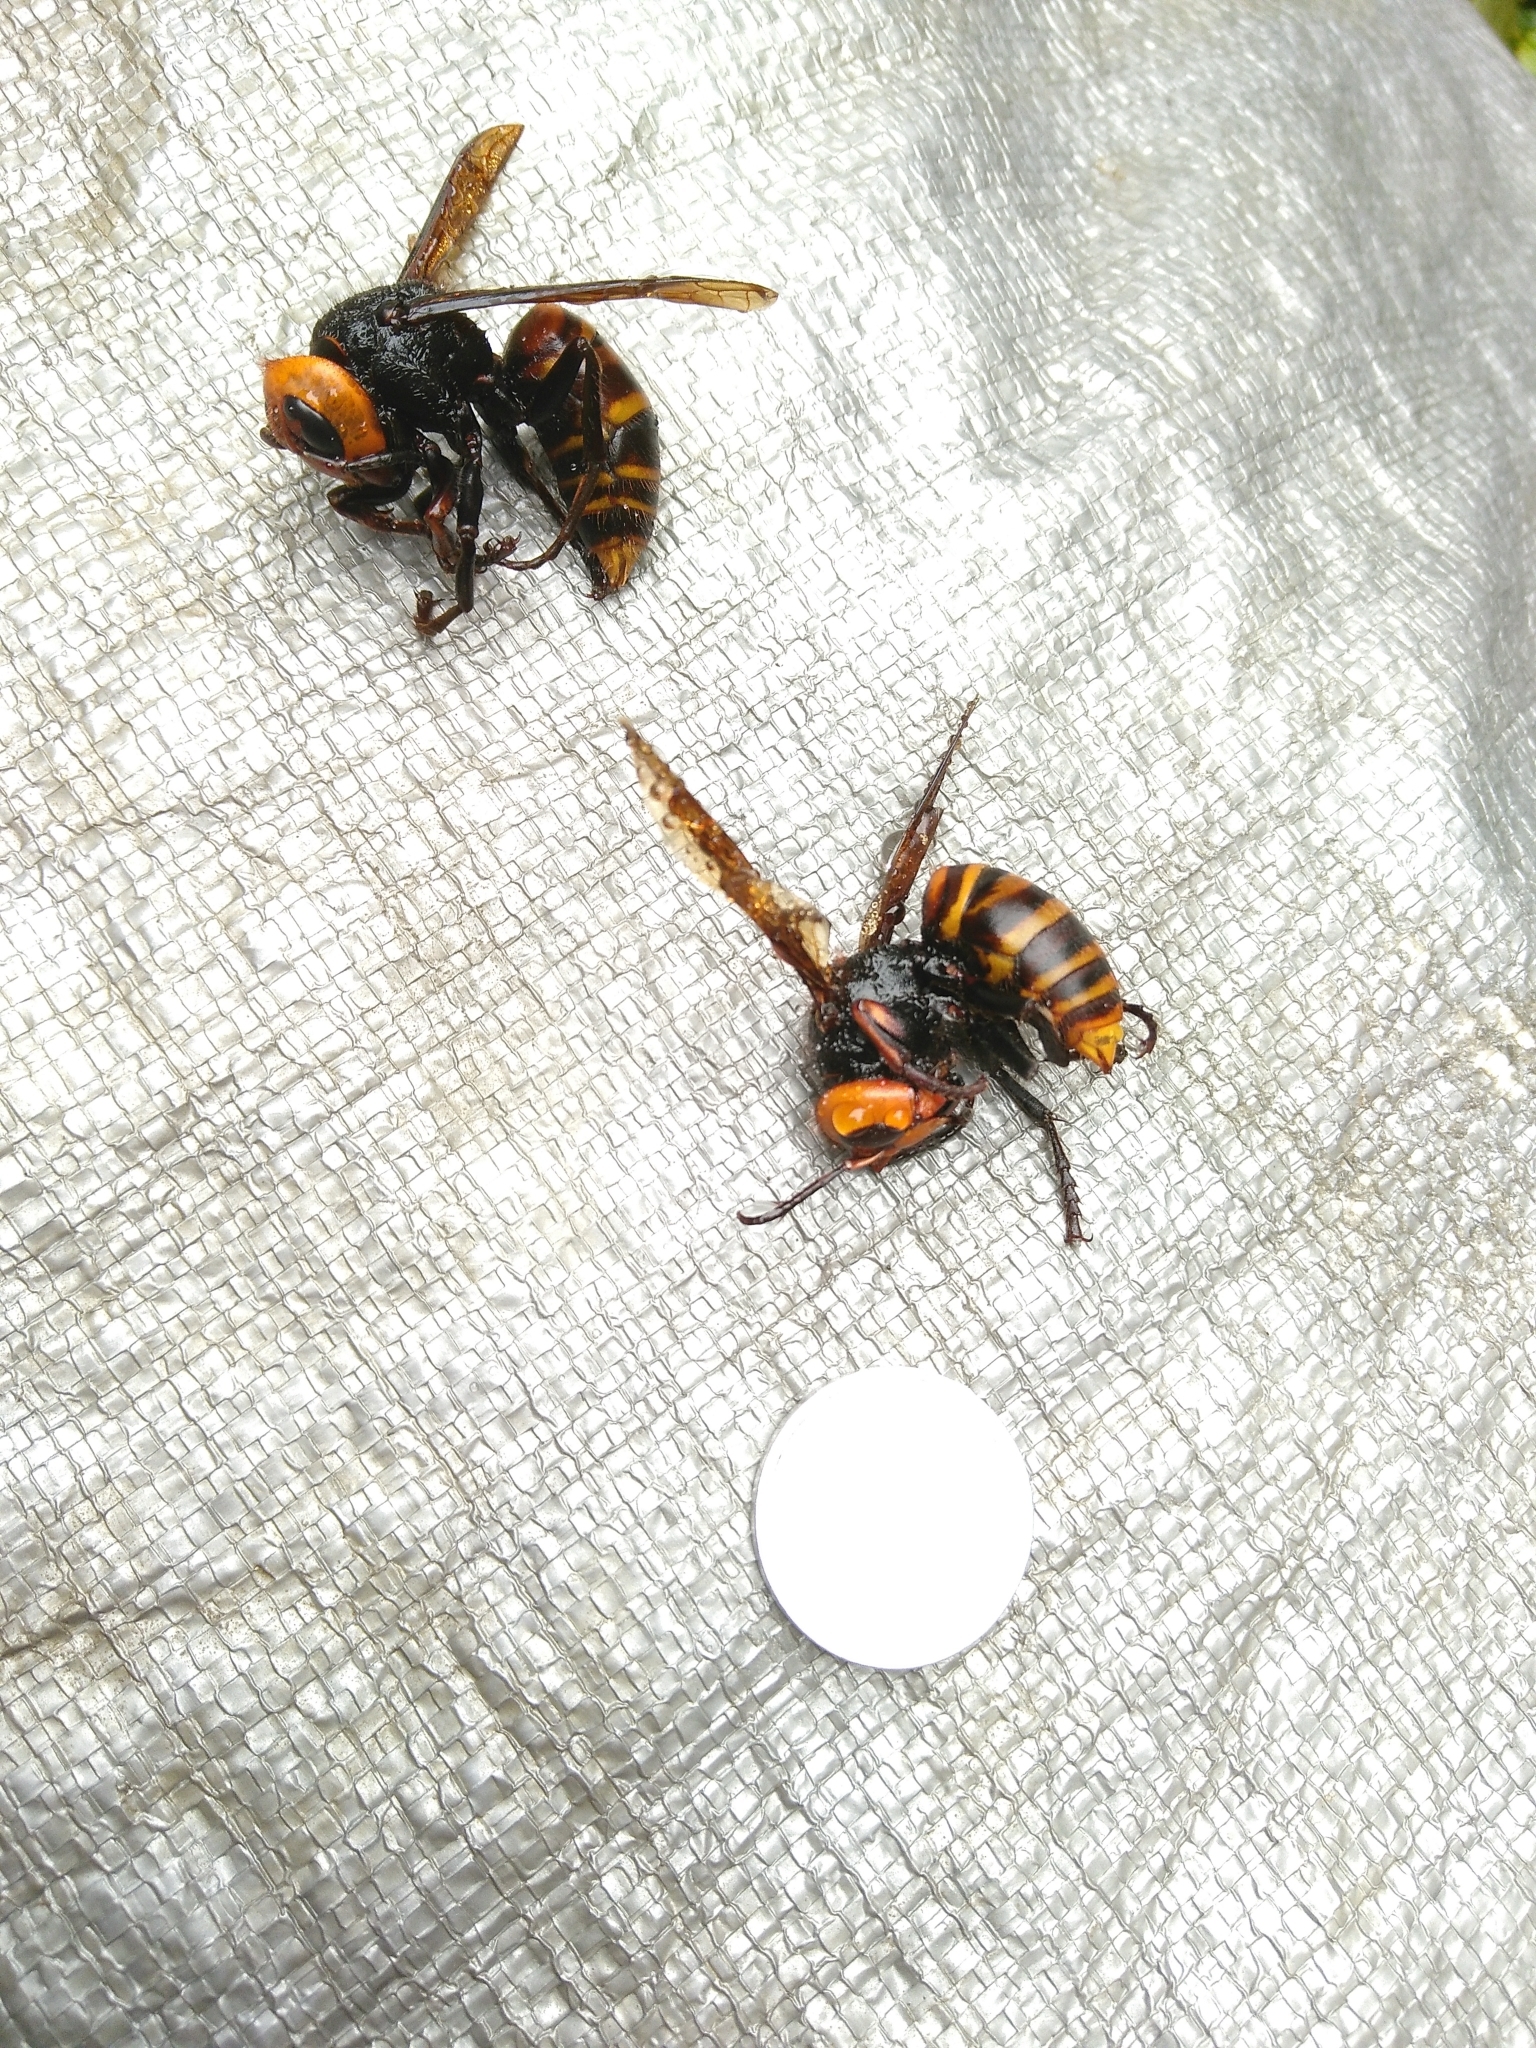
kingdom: Animalia
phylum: Arthropoda
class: Insecta
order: Hymenoptera
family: Vespidae
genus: Vespa
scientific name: Vespa mandarinia
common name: Asian giant hornet
